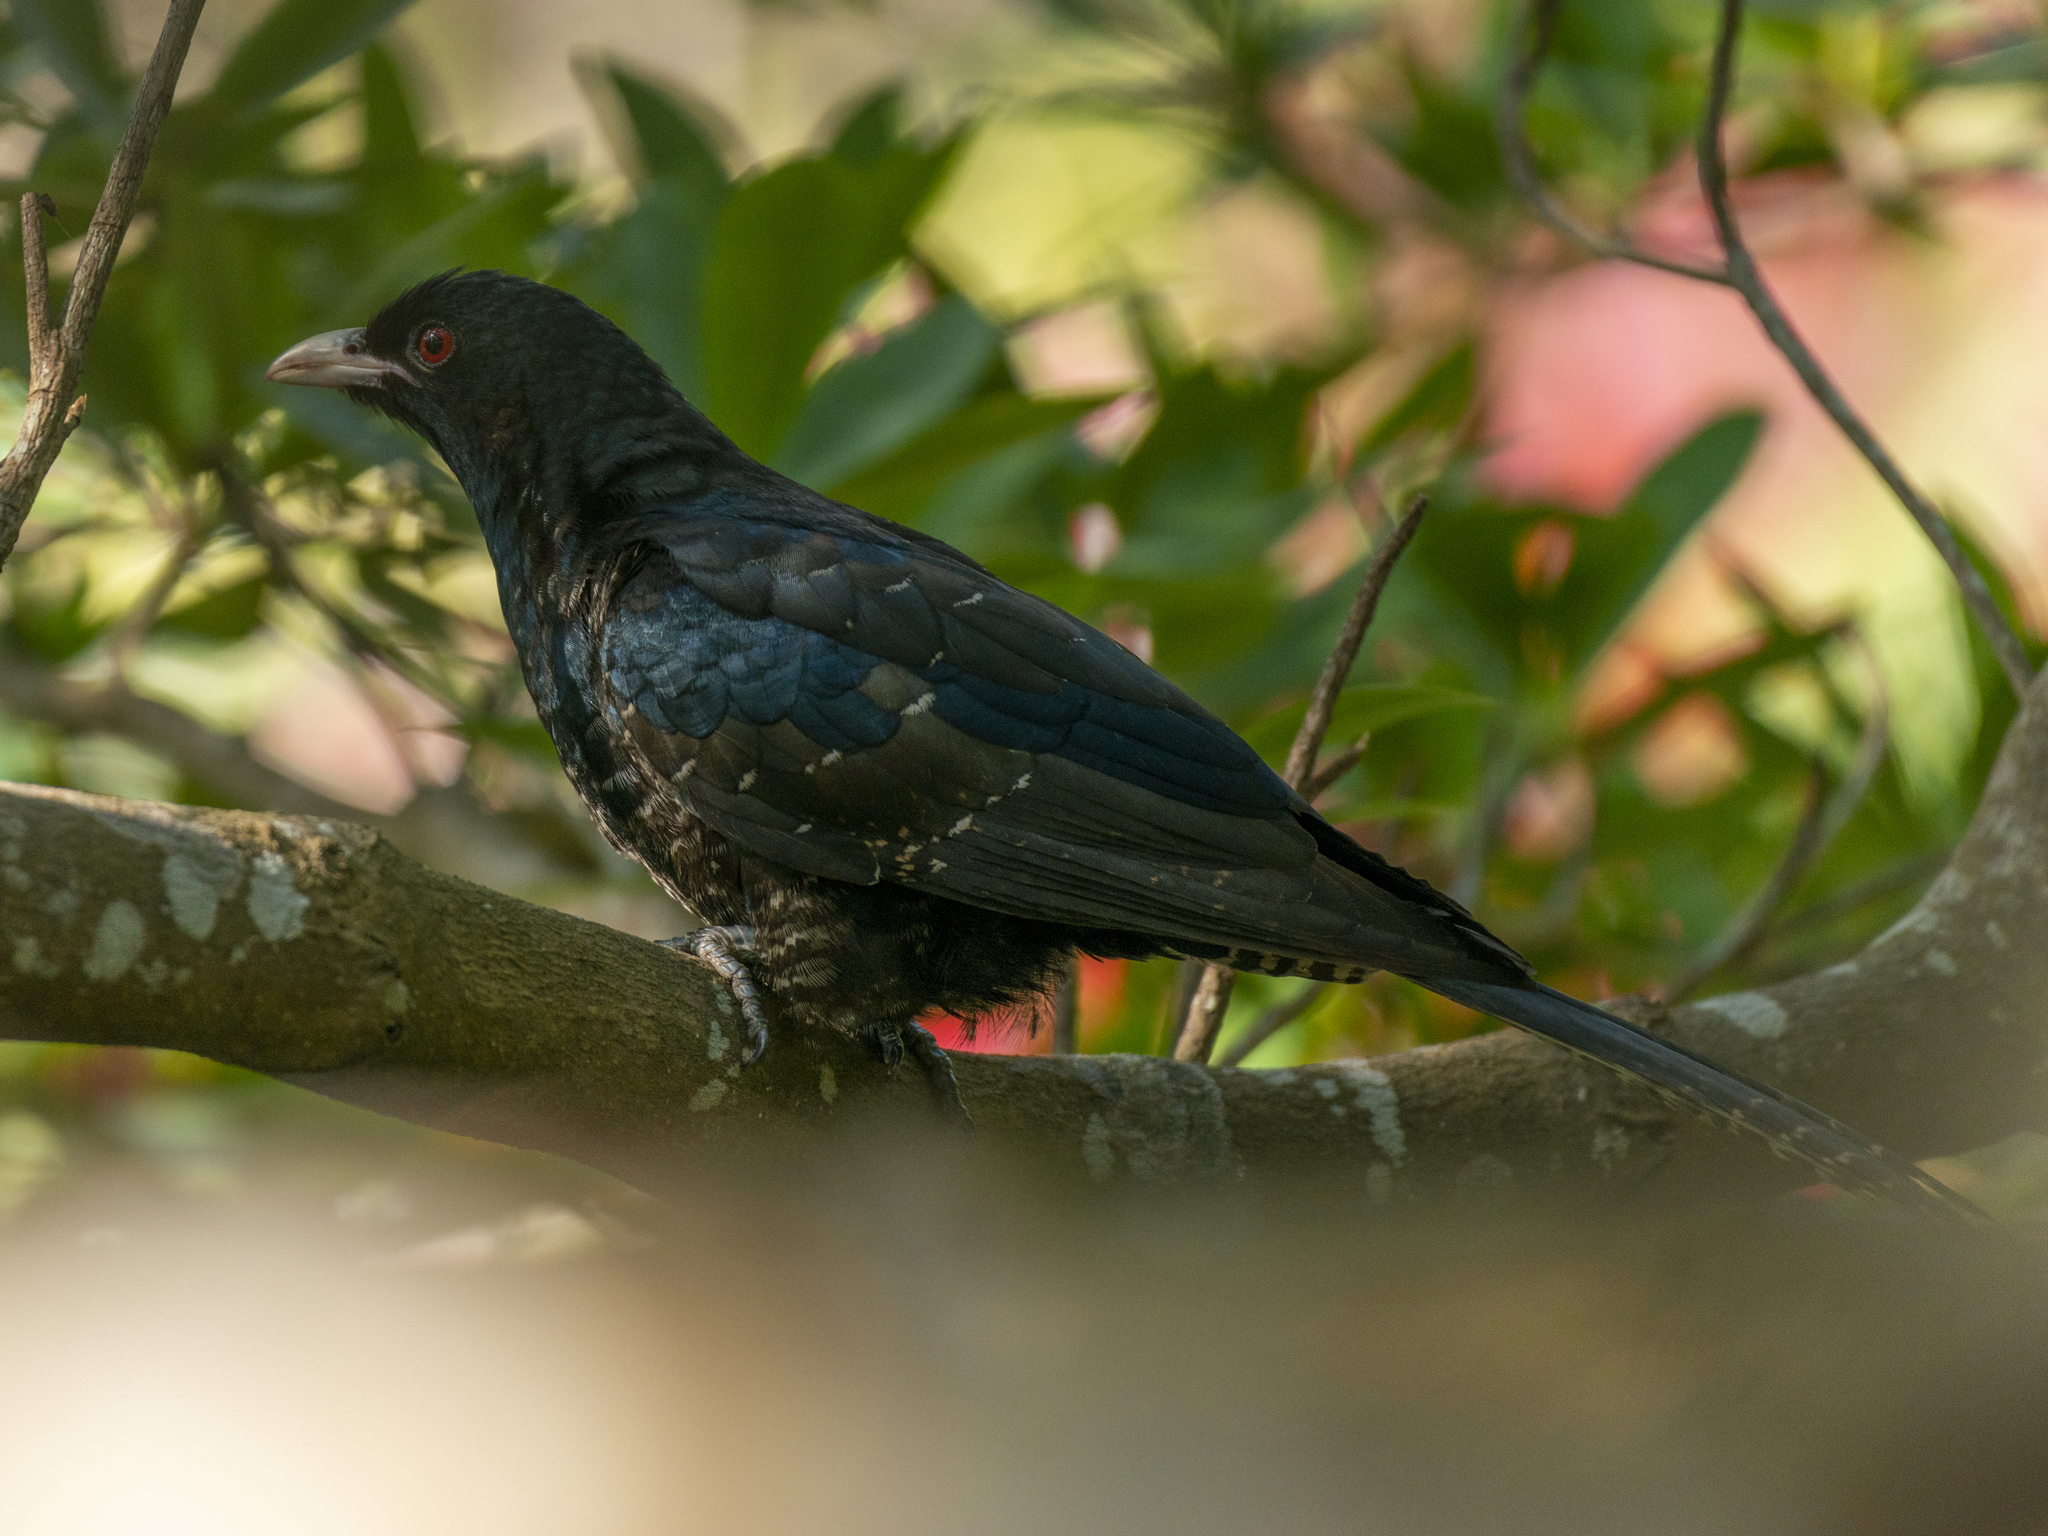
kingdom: Animalia
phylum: Chordata
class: Aves
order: Cuculiformes
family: Cuculidae
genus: Eudynamys
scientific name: Eudynamys scolopaceus
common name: Asian koel
